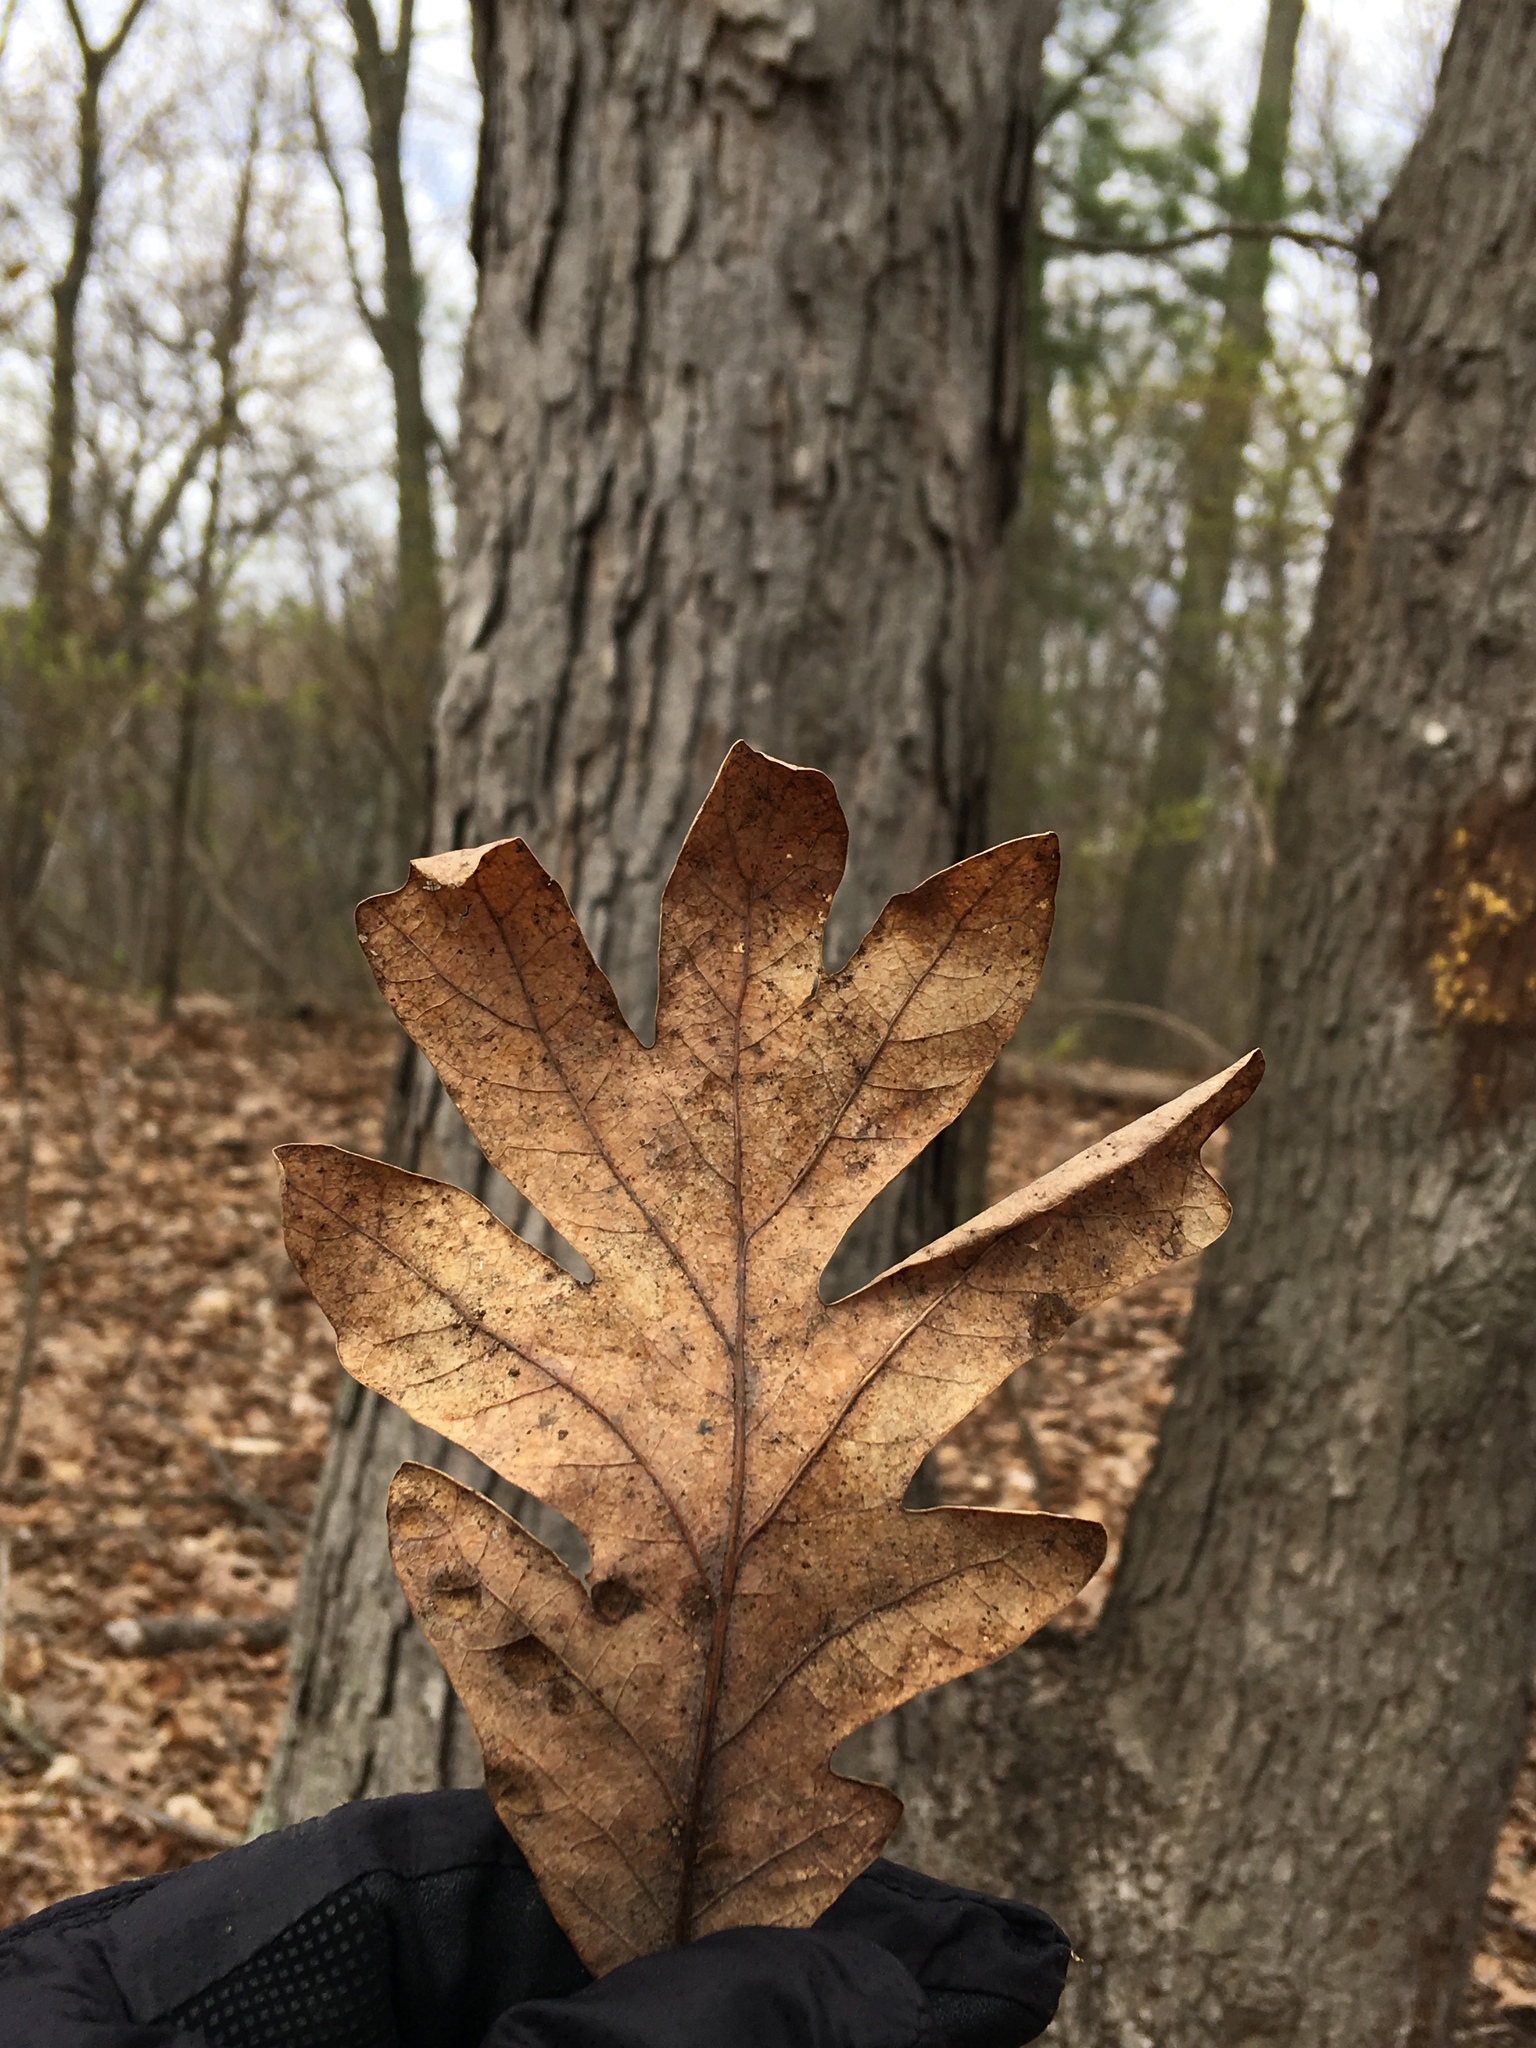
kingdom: Plantae
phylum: Tracheophyta
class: Magnoliopsida
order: Fagales
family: Fagaceae
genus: Quercus
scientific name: Quercus alba
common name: White oak
